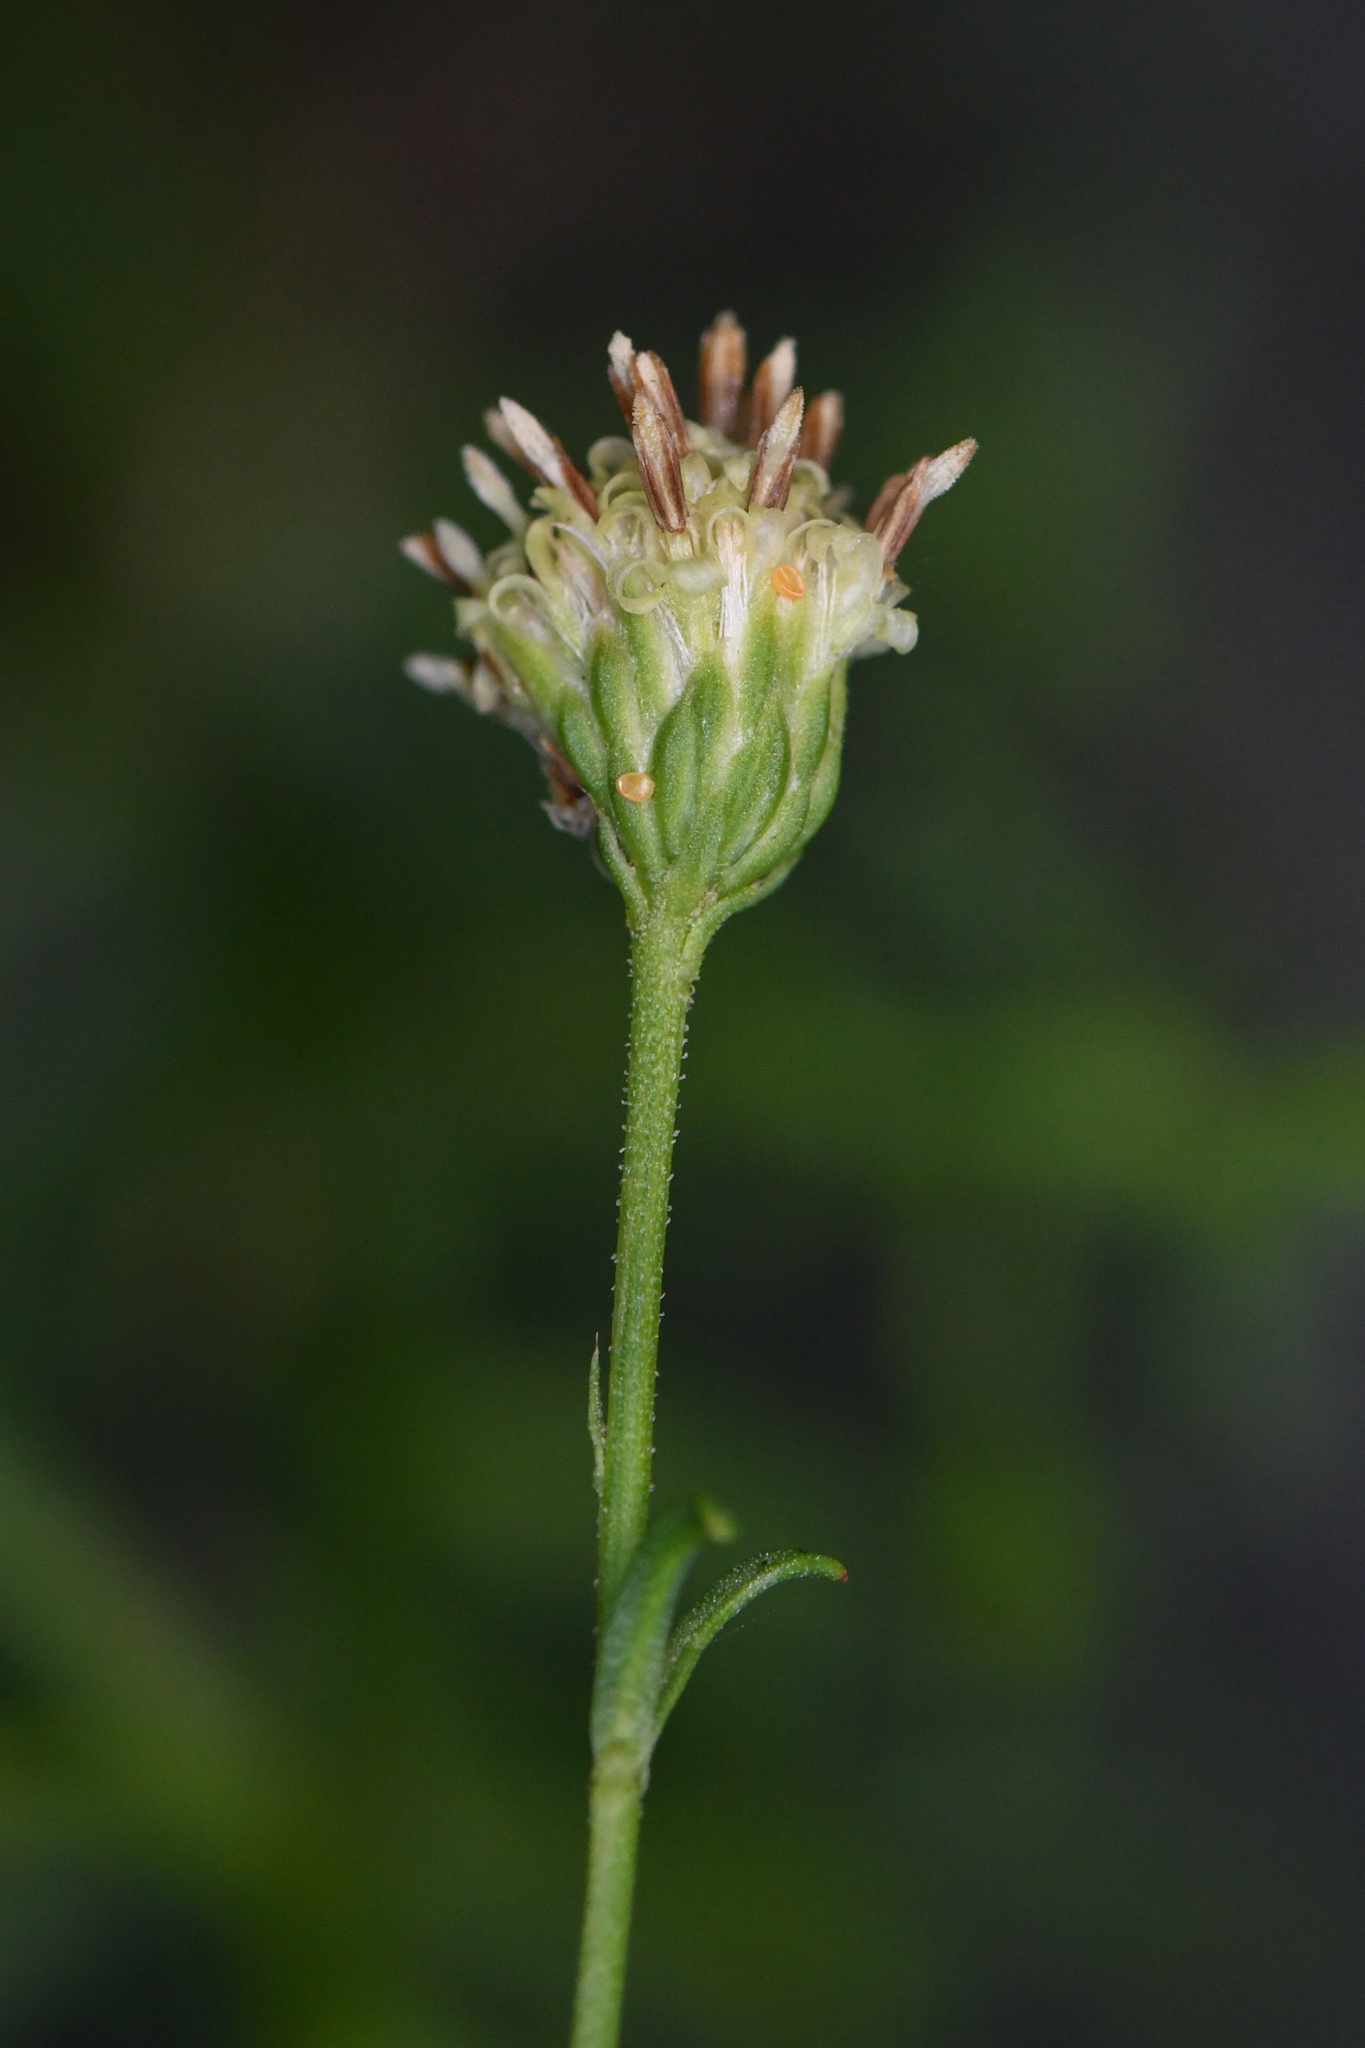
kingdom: Plantae
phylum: Tracheophyta
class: Magnoliopsida
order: Asterales
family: Asteraceae
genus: Baccharis
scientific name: Baccharis vanessae
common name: Encinitas baccharis
